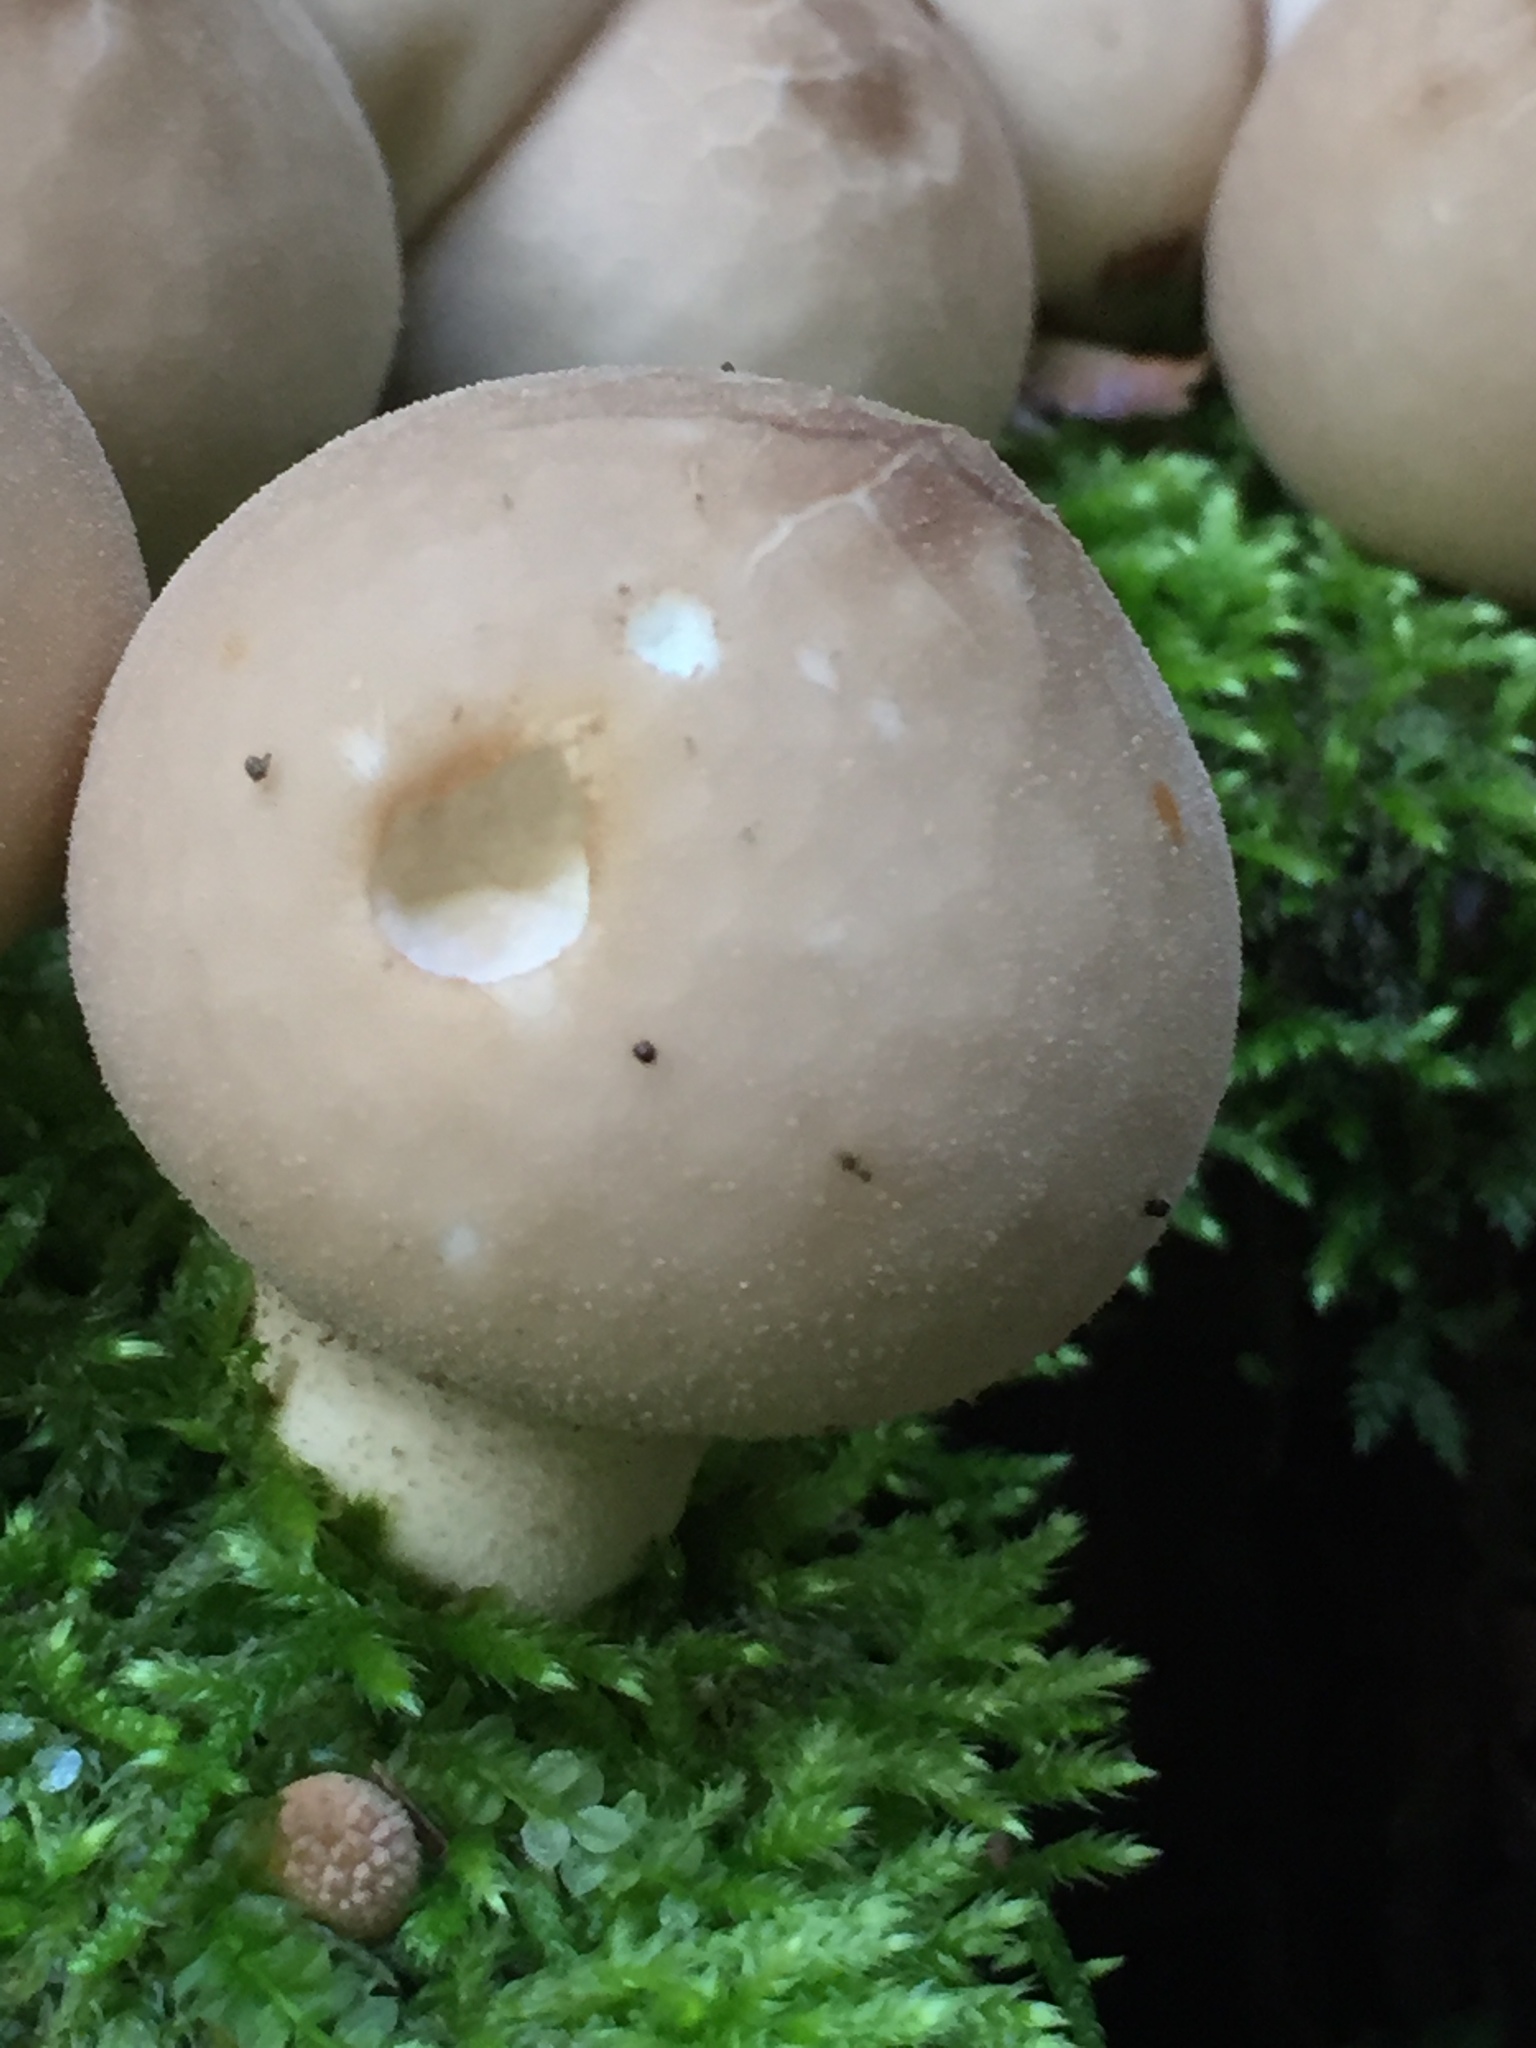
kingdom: Fungi
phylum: Basidiomycota
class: Agaricomycetes
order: Agaricales
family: Lycoperdaceae
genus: Apioperdon
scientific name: Apioperdon pyriforme
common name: Pear-shaped puffball
